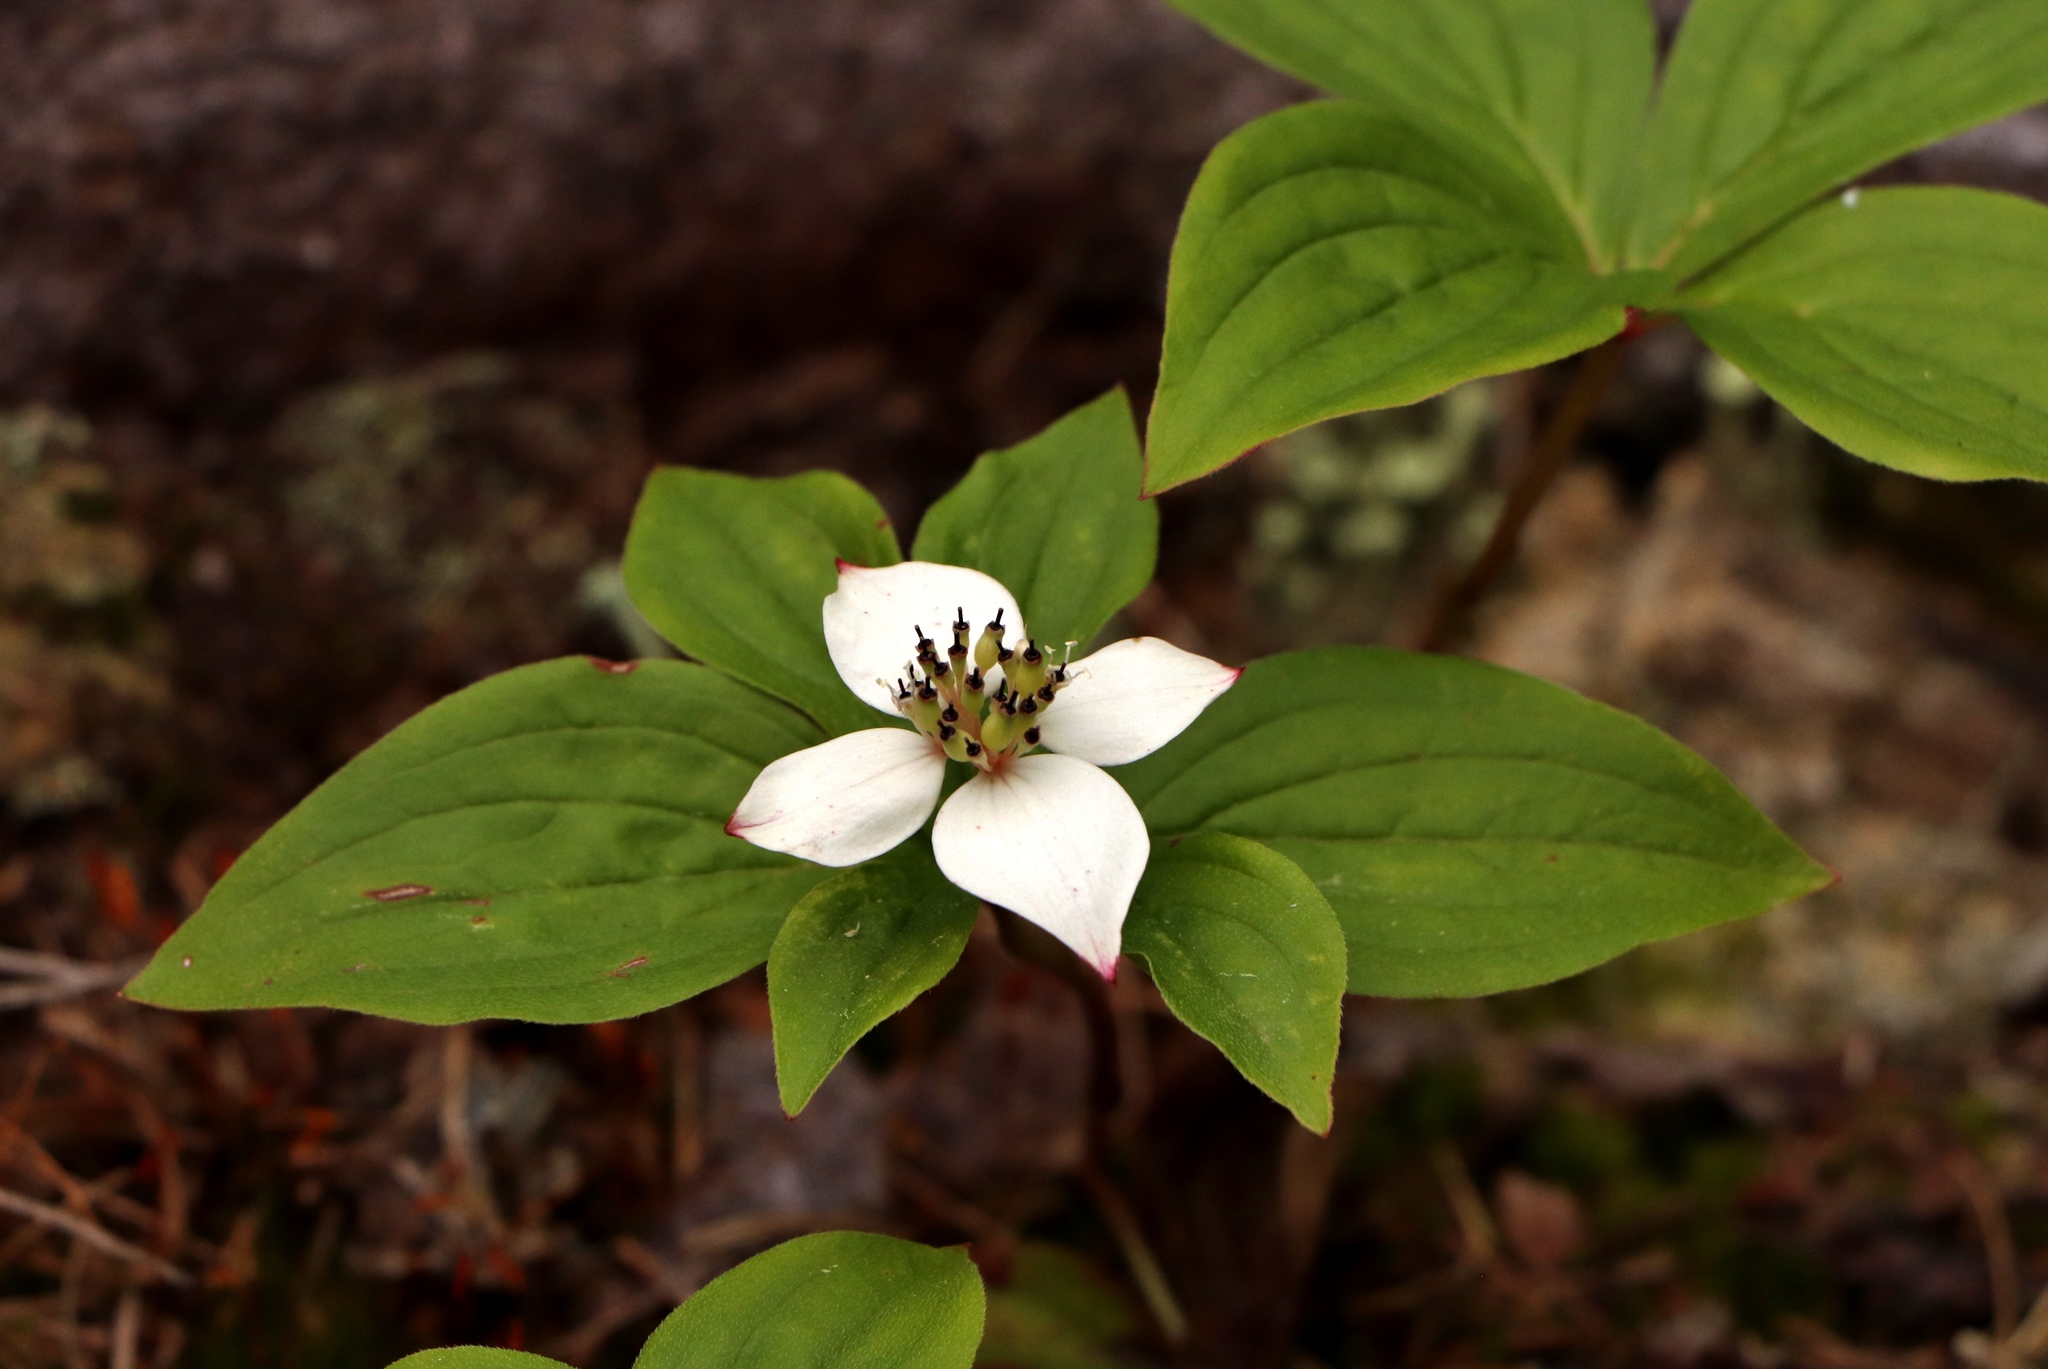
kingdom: Plantae
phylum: Tracheophyta
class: Magnoliopsida
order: Cornales
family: Cornaceae
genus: Cornus
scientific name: Cornus canadensis
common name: Creeping dogwood
